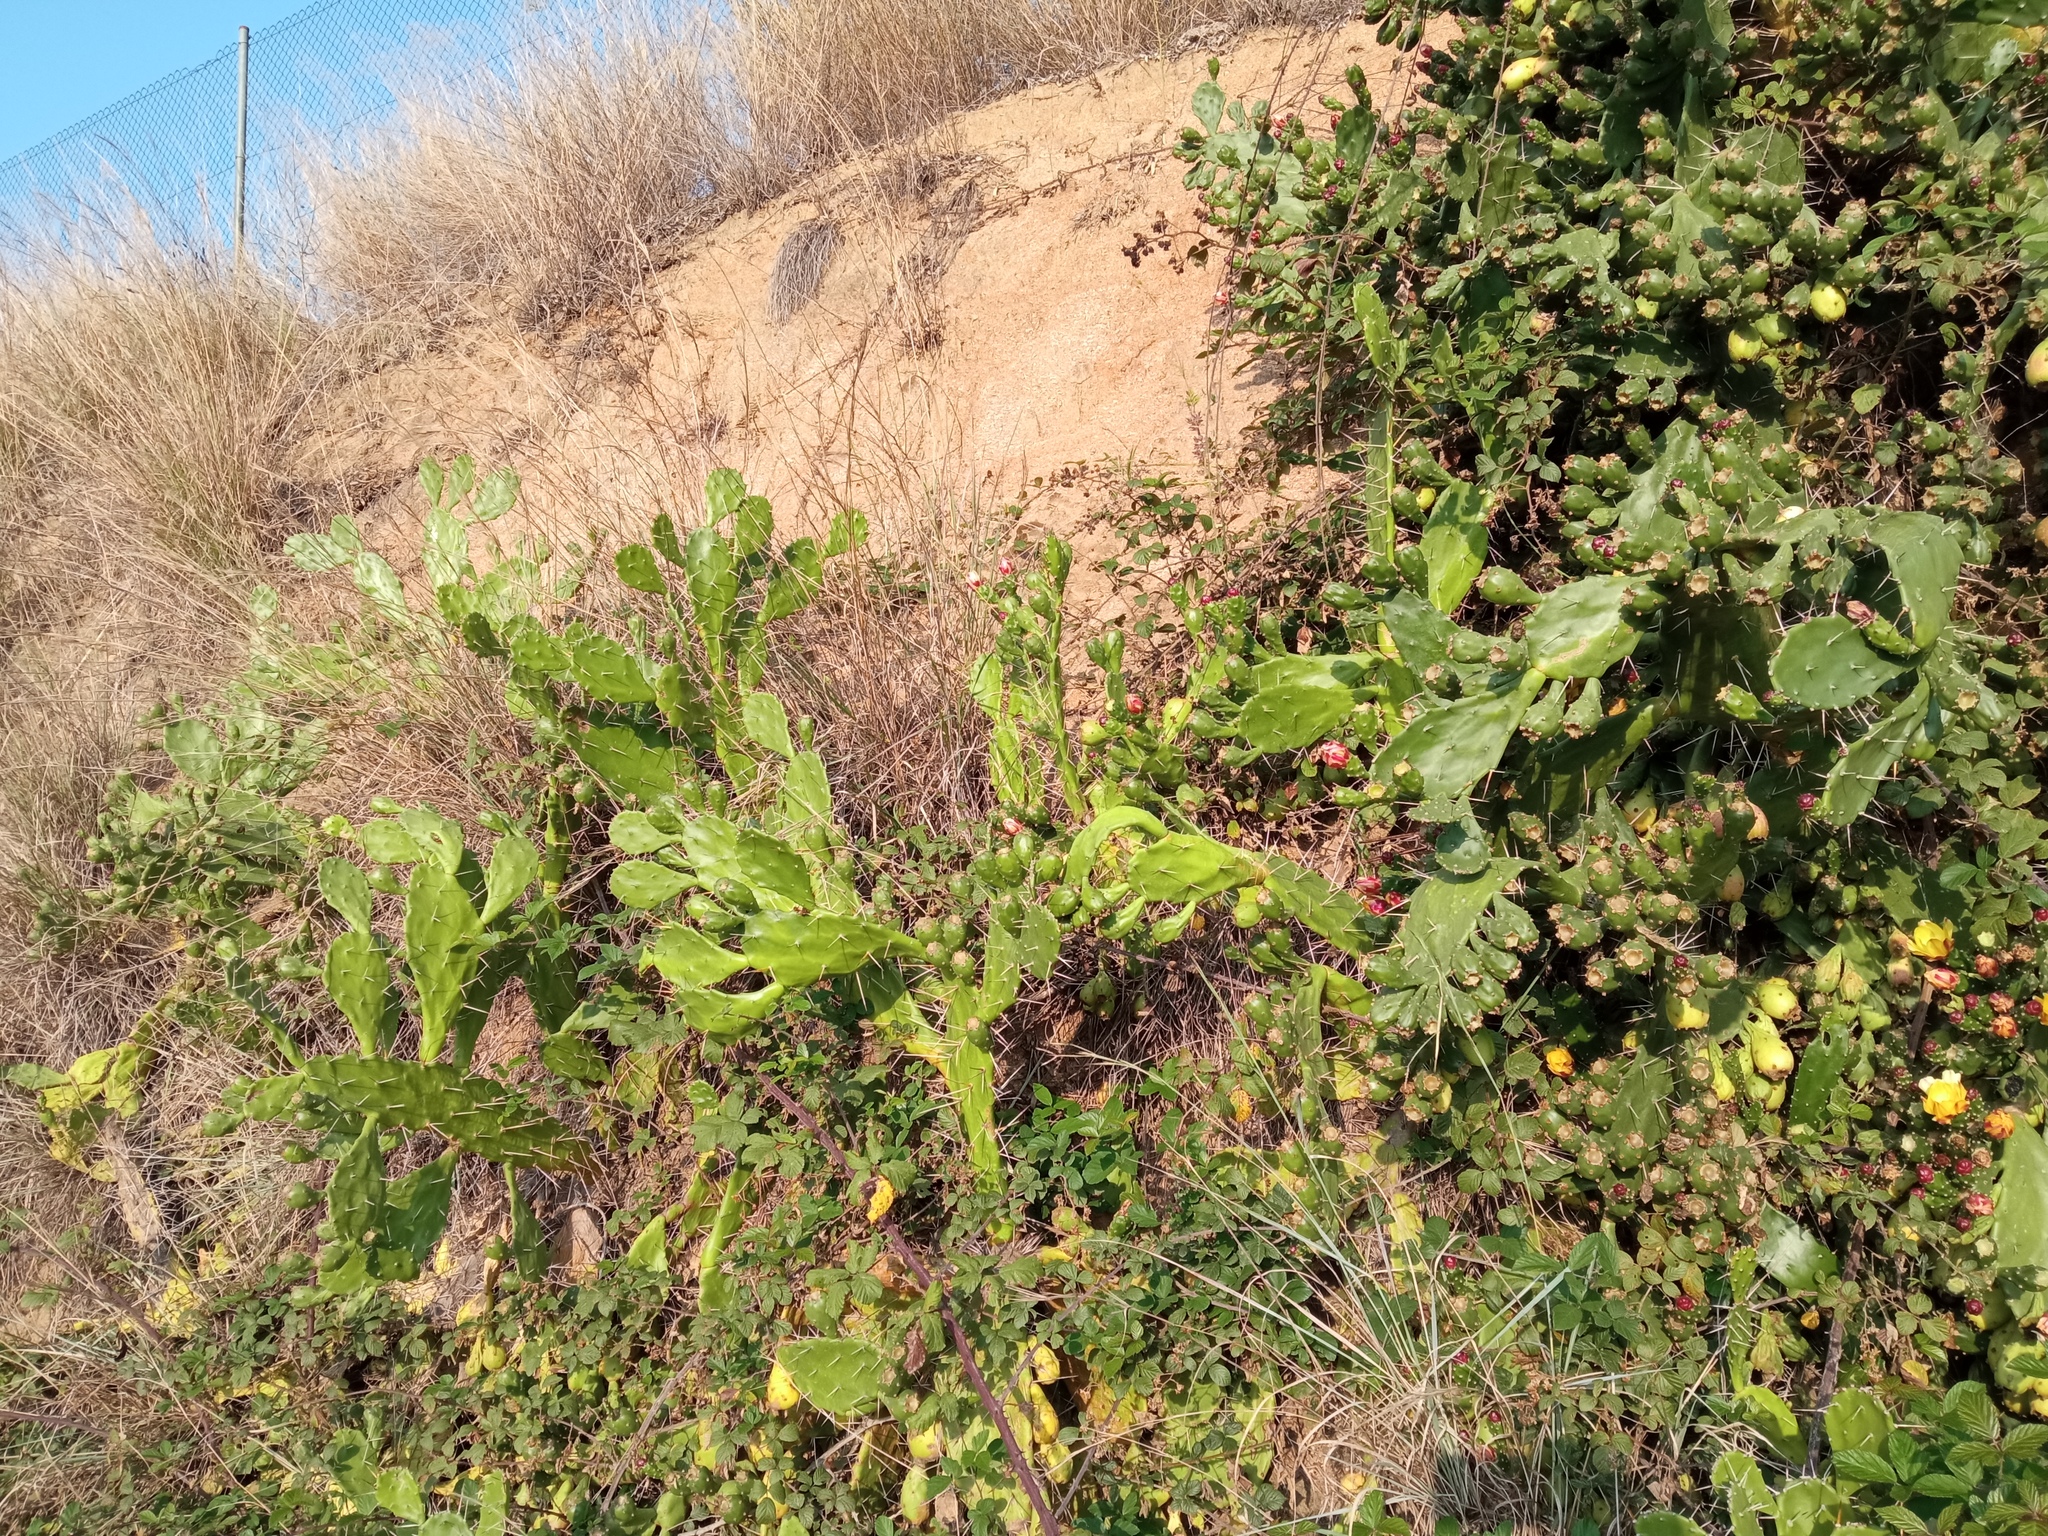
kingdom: Plantae
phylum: Tracheophyta
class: Magnoliopsida
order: Caryophyllales
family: Cactaceae
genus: Opuntia
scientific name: Opuntia monacantha
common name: Common pricklypear
